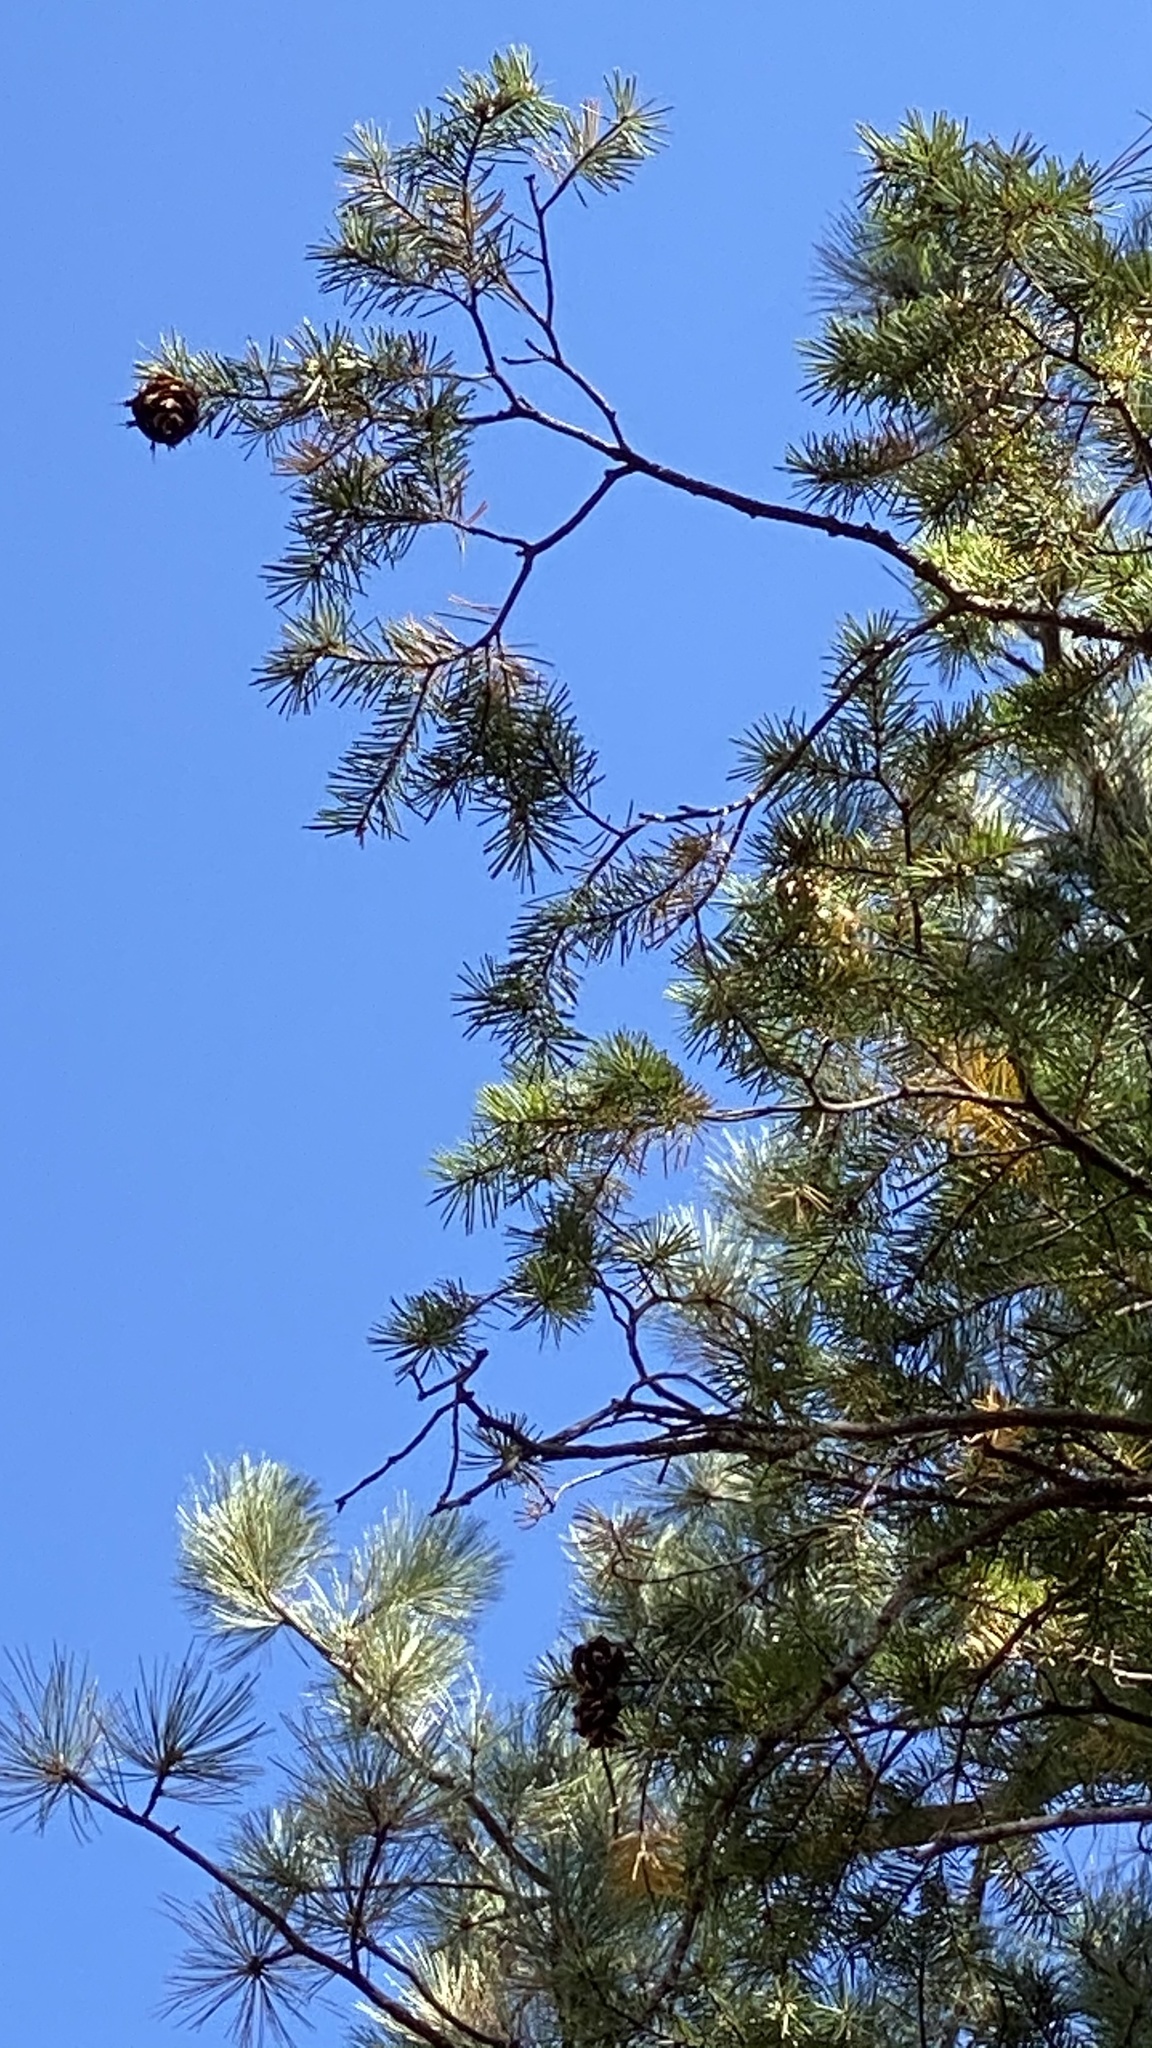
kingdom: Plantae
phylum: Tracheophyta
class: Pinopsida
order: Pinales
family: Pinaceae
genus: Pseudotsuga
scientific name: Pseudotsuga menziesii
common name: Douglas fir
